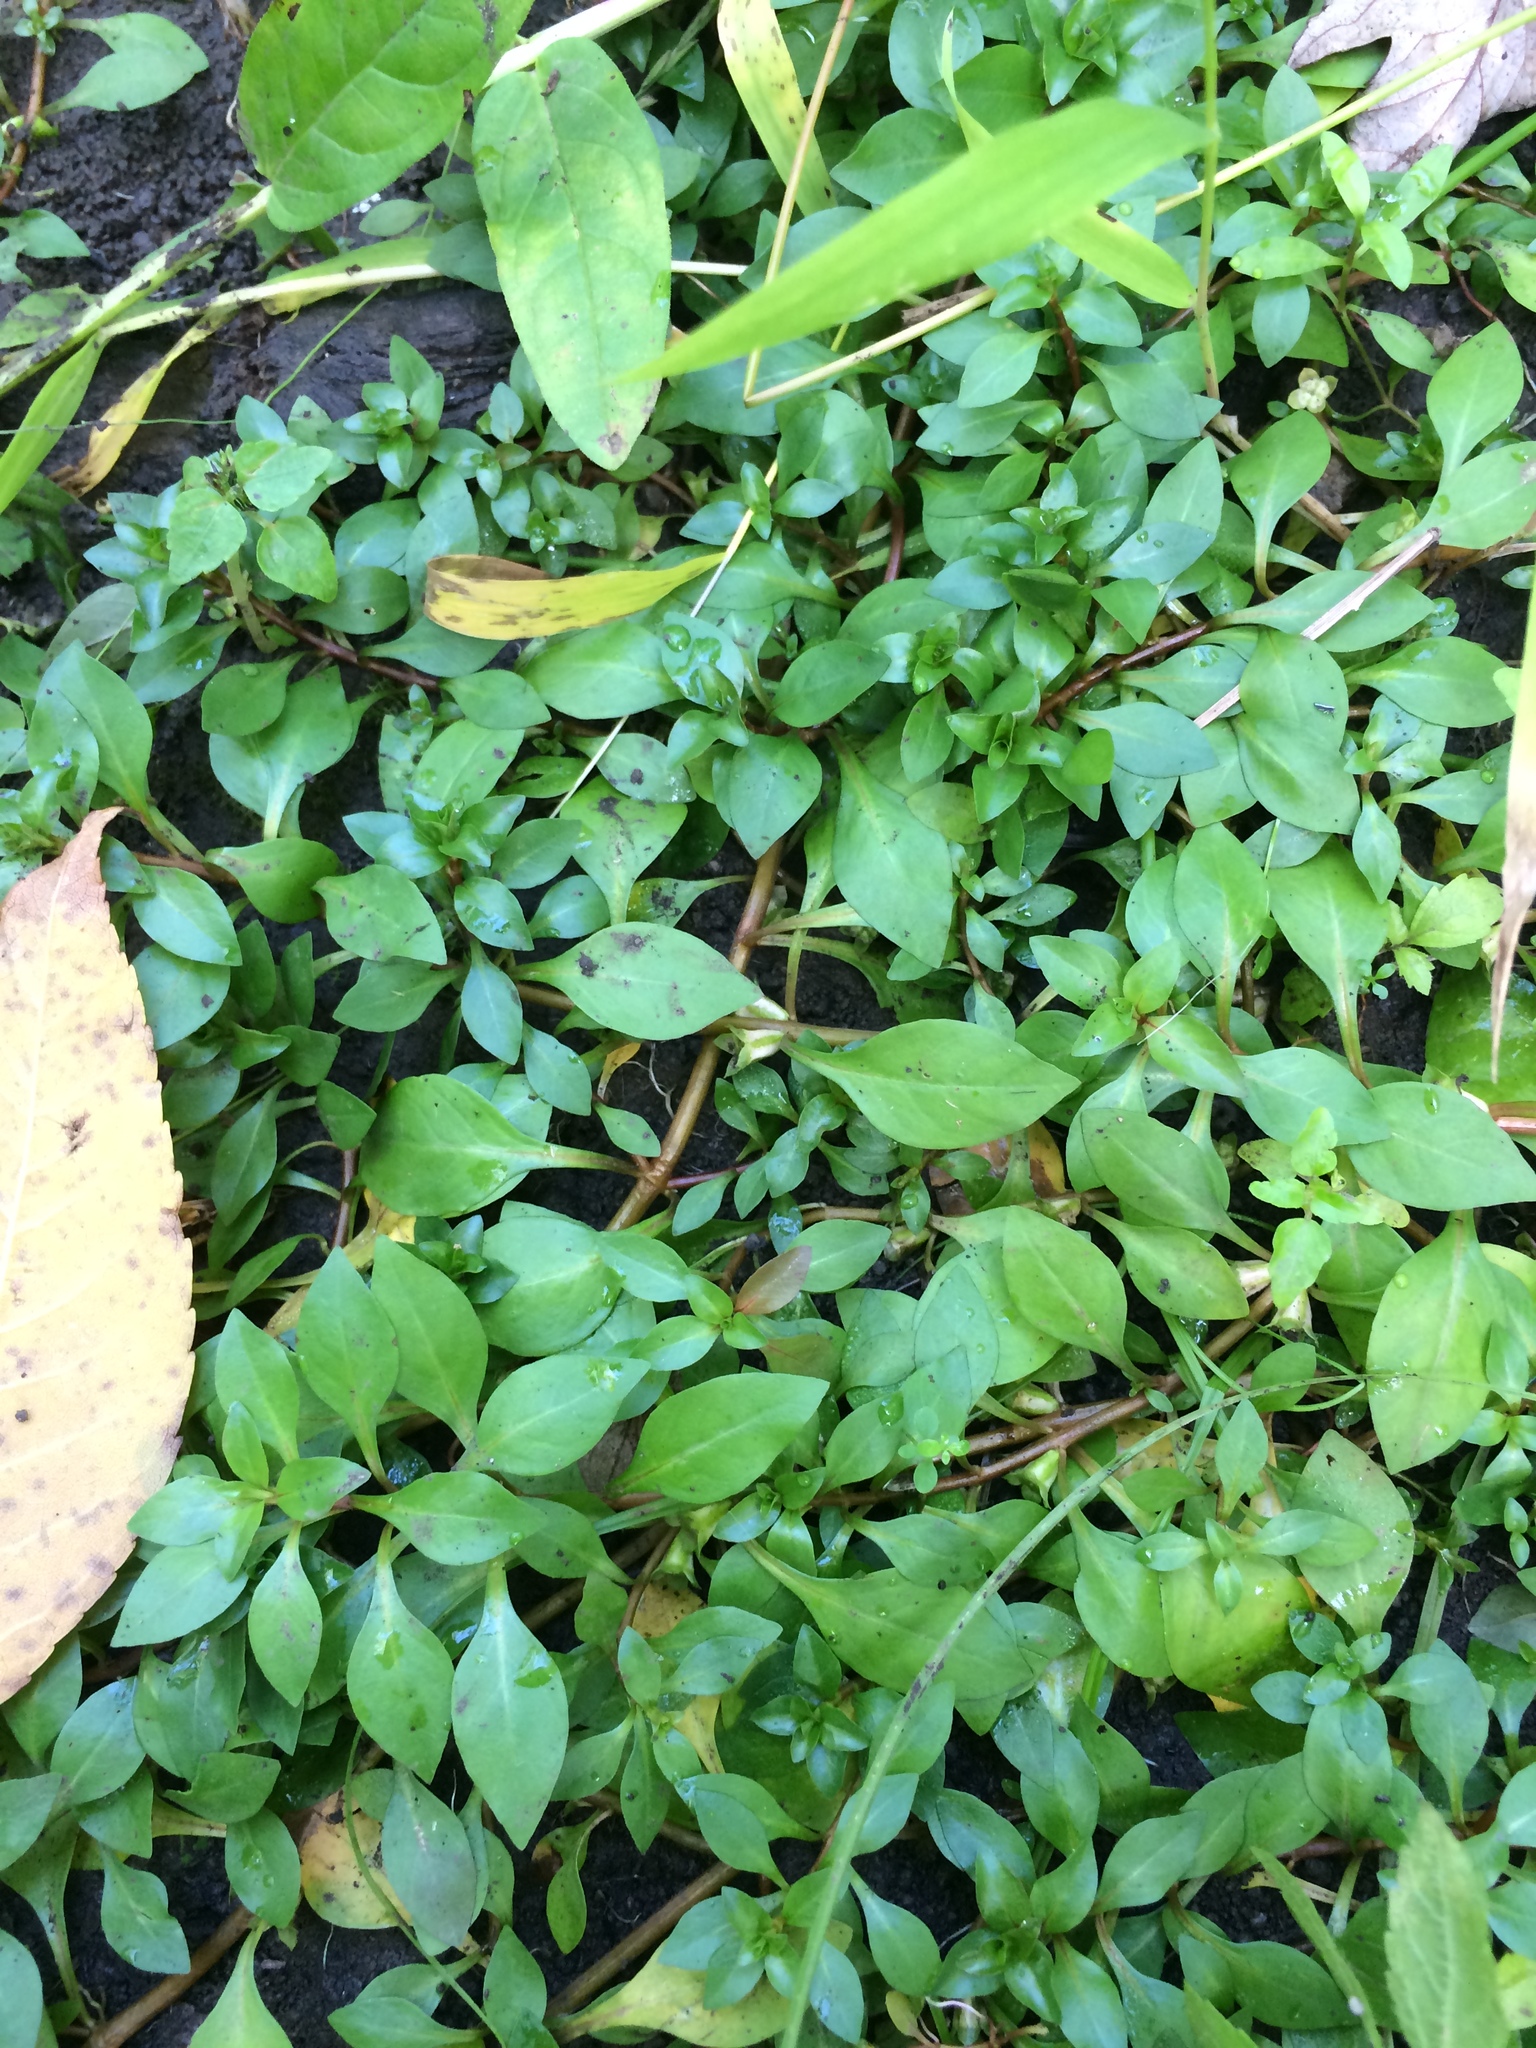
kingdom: Plantae
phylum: Tracheophyta
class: Magnoliopsida
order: Myrtales
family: Onagraceae
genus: Ludwigia
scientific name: Ludwigia palustris
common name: Hampshire-purslane
